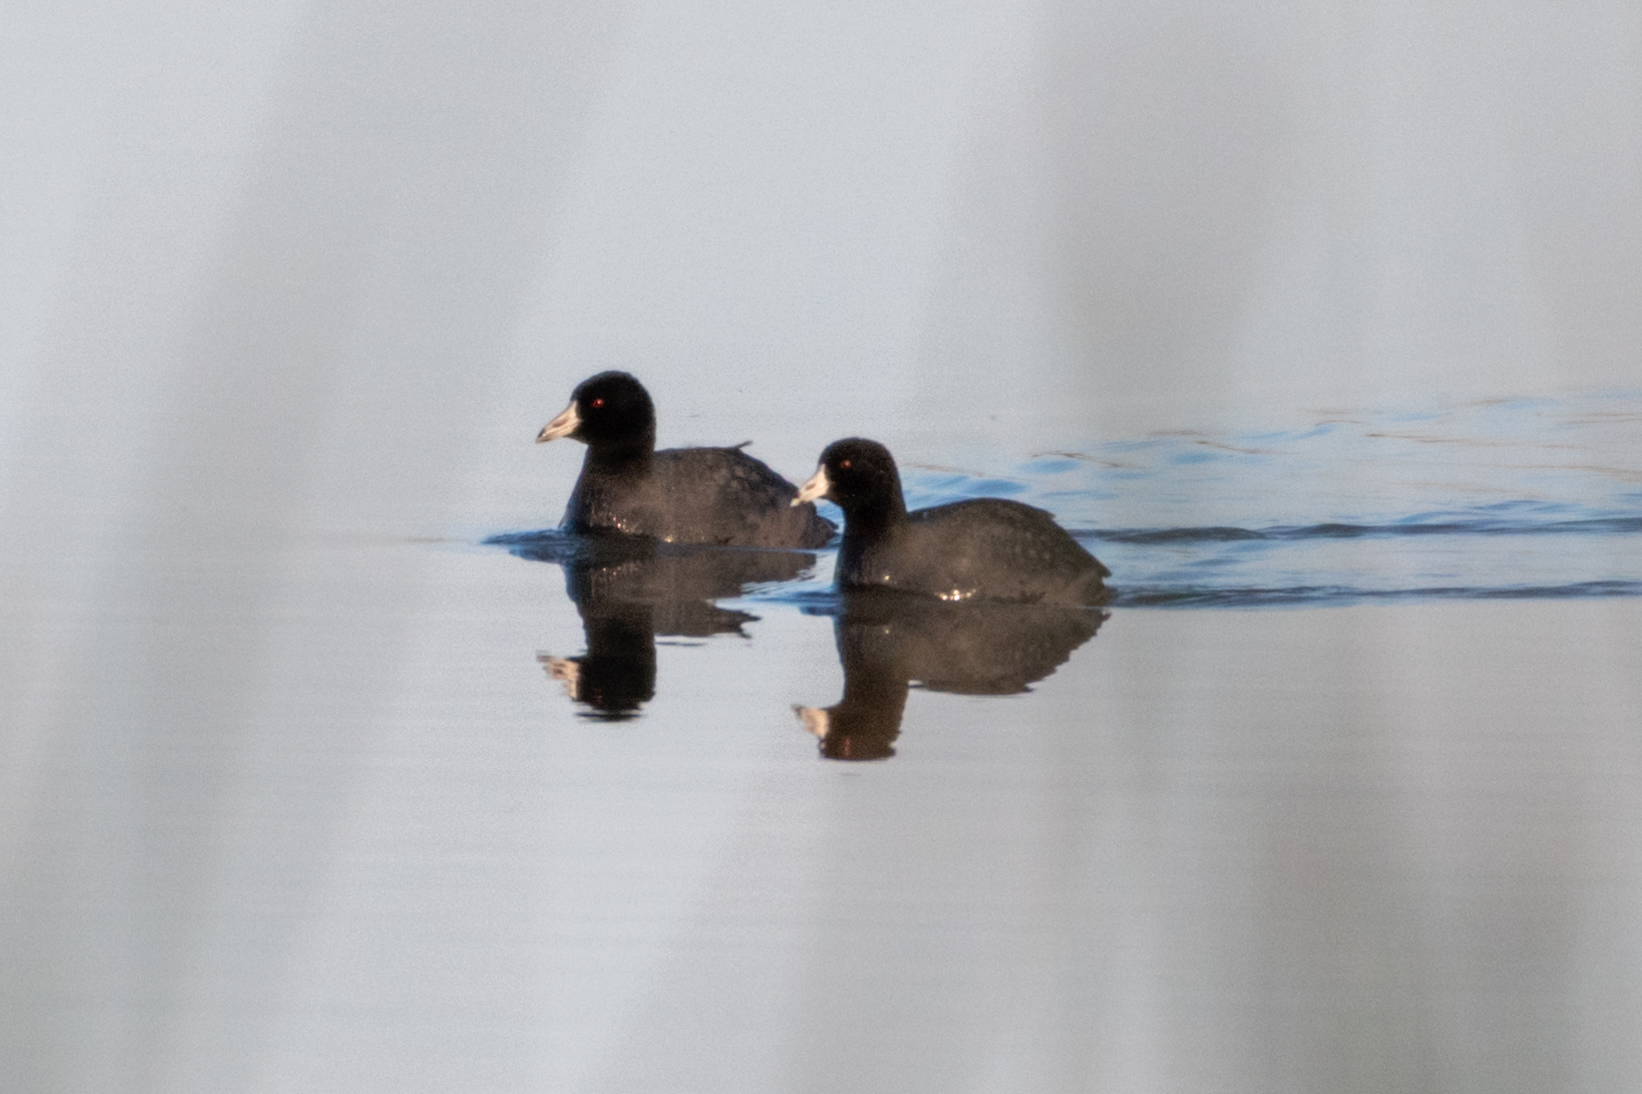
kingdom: Animalia
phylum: Chordata
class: Aves
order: Gruiformes
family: Rallidae
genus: Fulica
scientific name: Fulica americana
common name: American coot
